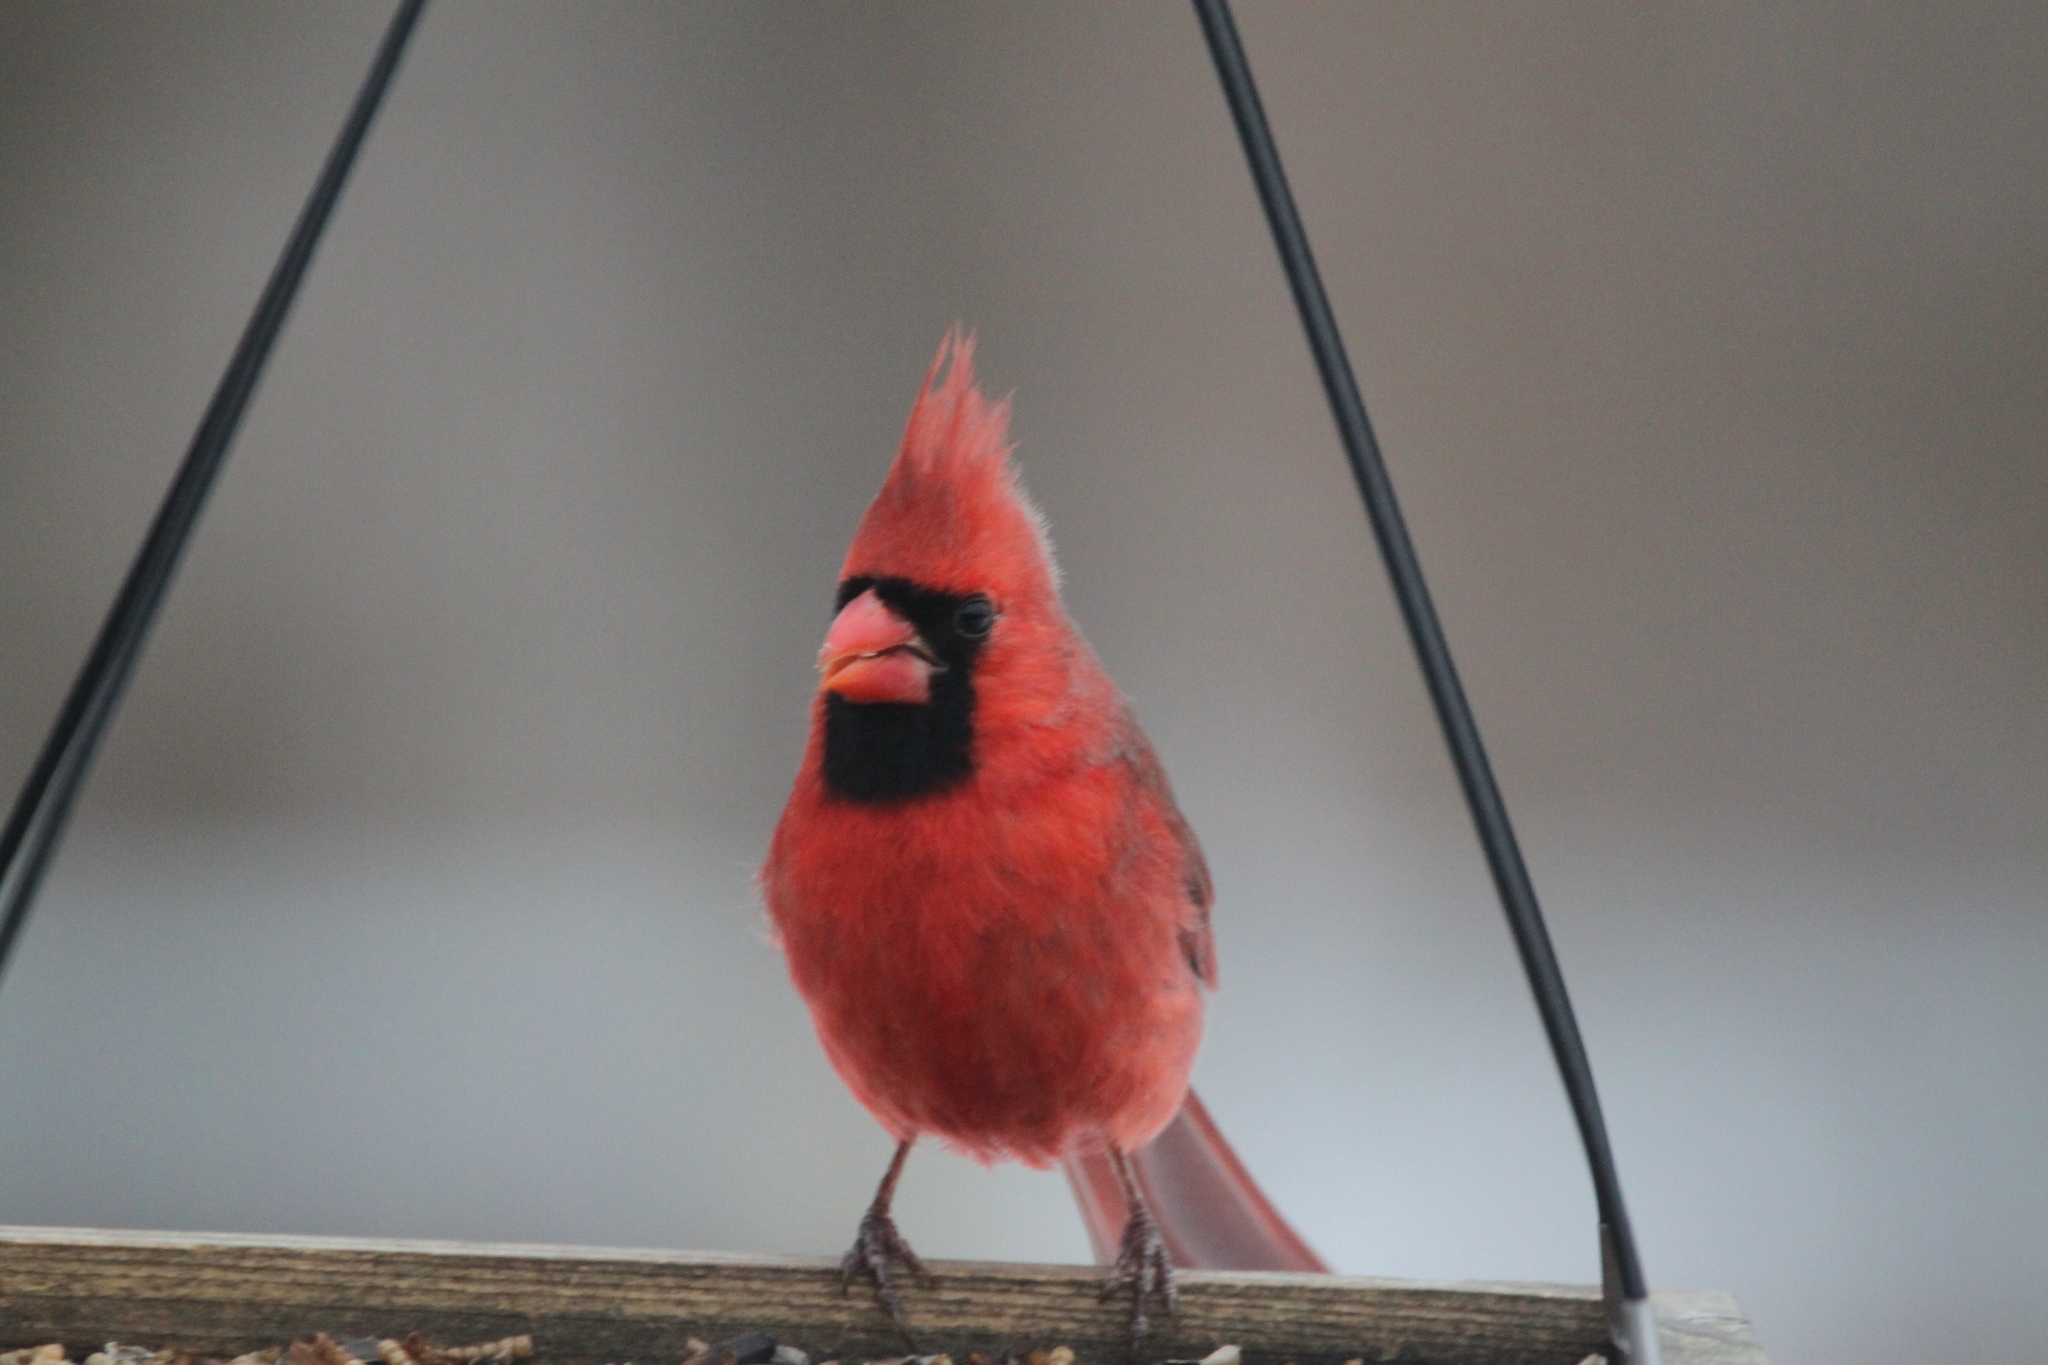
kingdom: Animalia
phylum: Chordata
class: Aves
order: Passeriformes
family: Cardinalidae
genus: Cardinalis
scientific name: Cardinalis cardinalis
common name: Northern cardinal
